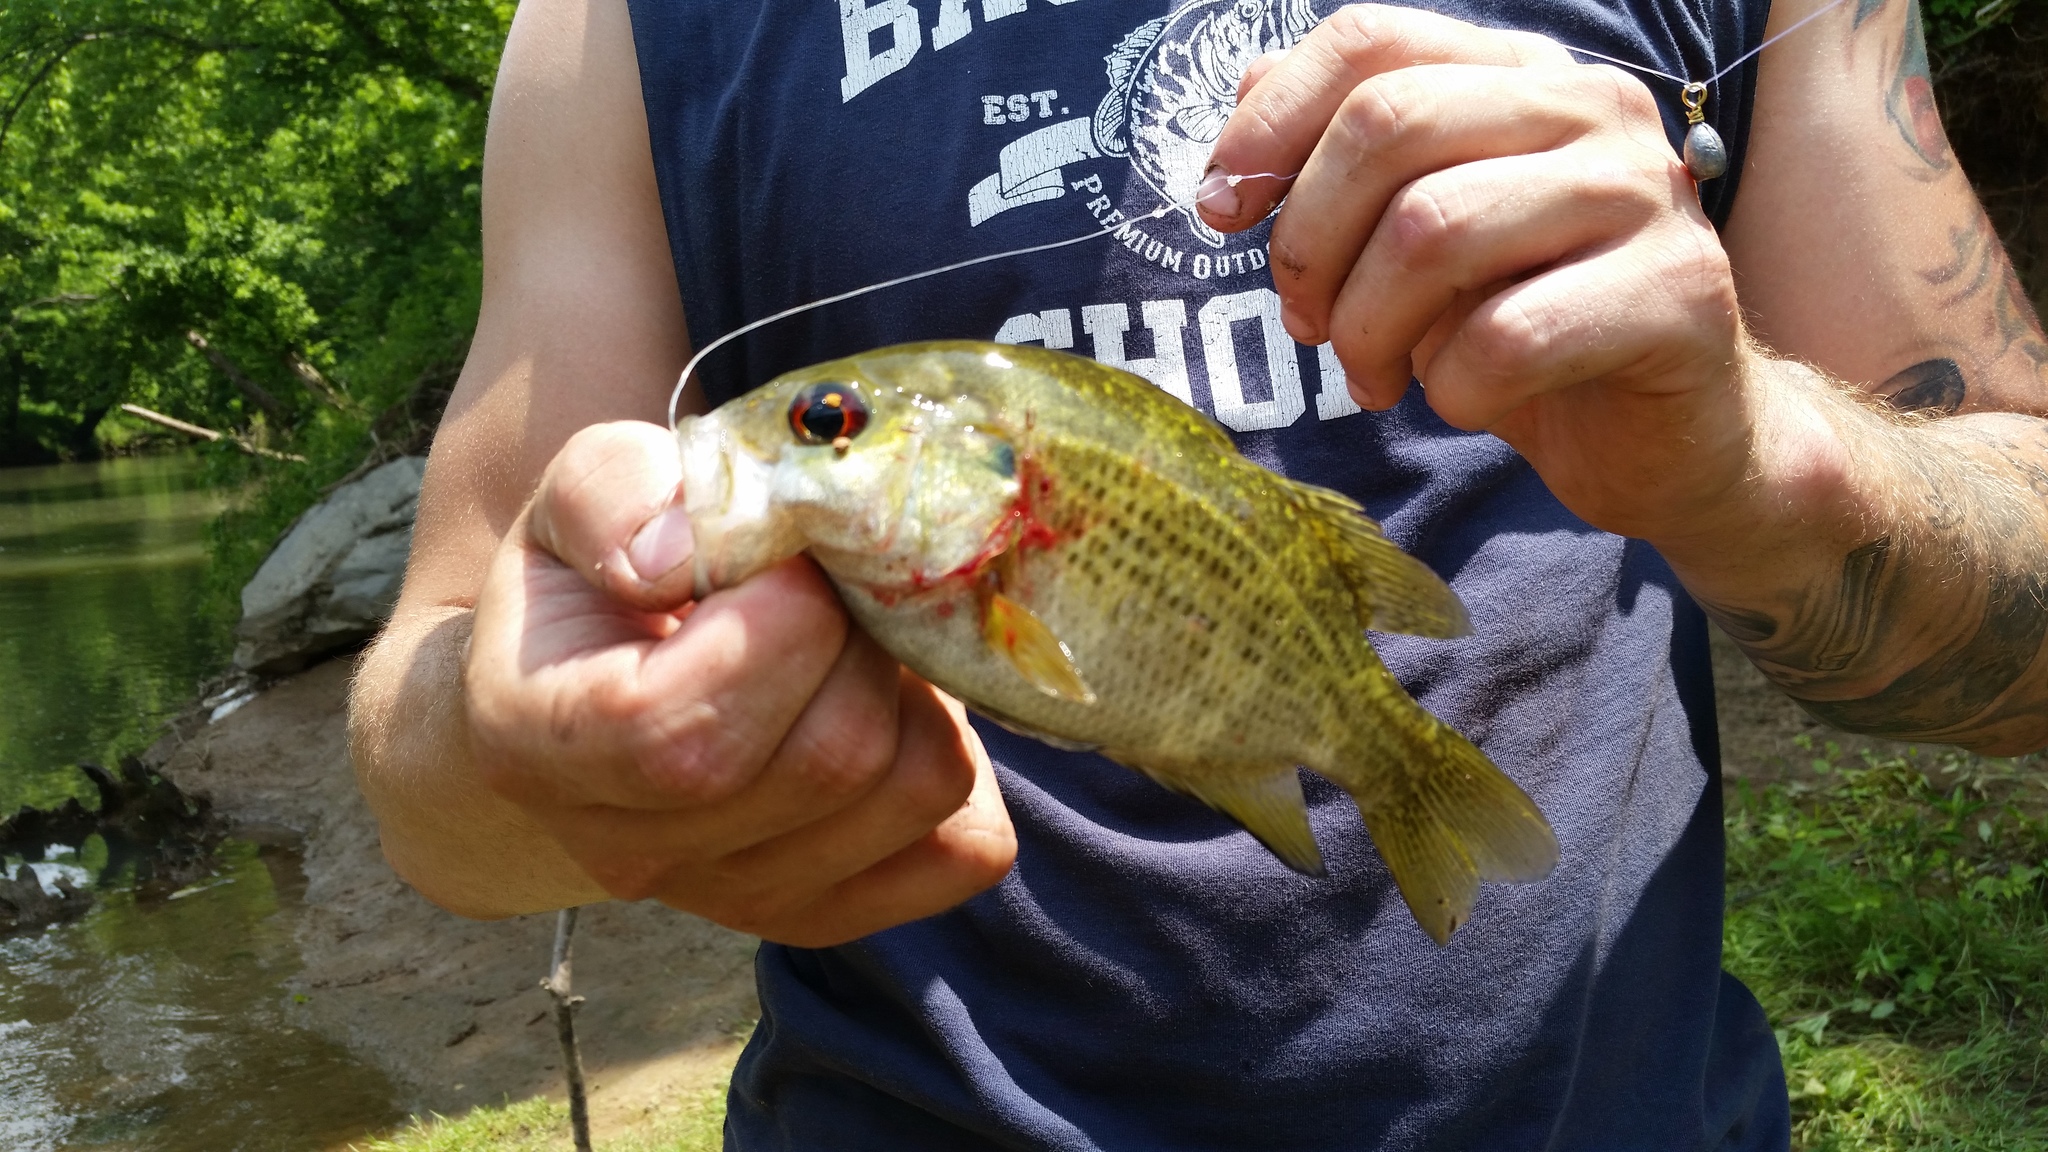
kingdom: Animalia
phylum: Chordata
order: Perciformes
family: Centrarchidae
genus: Ambloplites
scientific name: Ambloplites rupestris
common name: Rock bass
